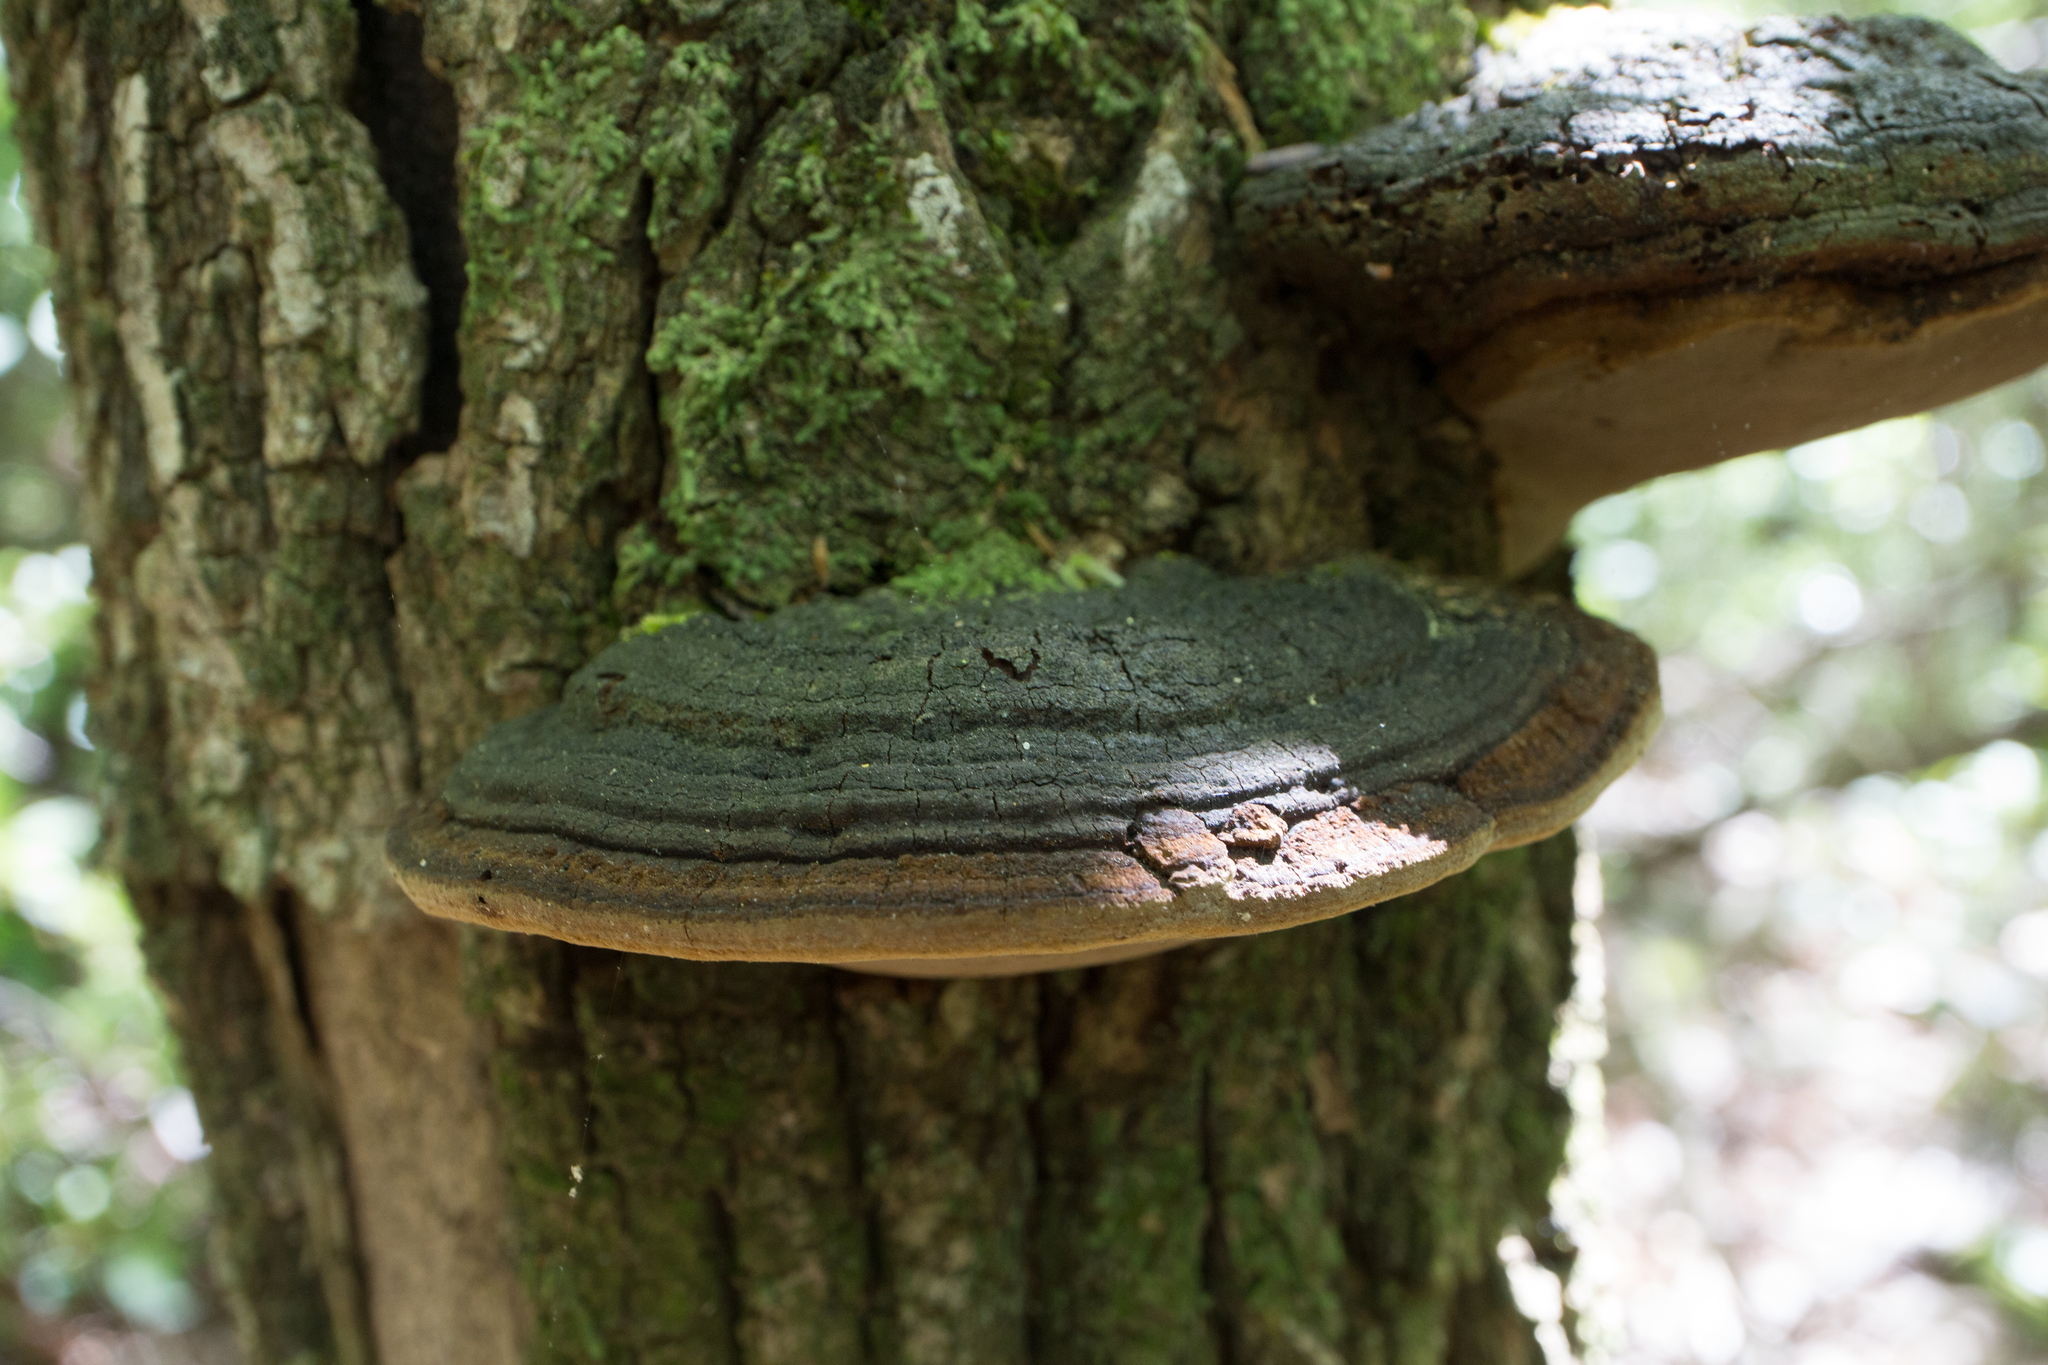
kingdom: Fungi
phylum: Basidiomycota
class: Agaricomycetes
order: Hymenochaetales
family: Hymenochaetaceae
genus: Phellinus
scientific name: Phellinus robiniae
